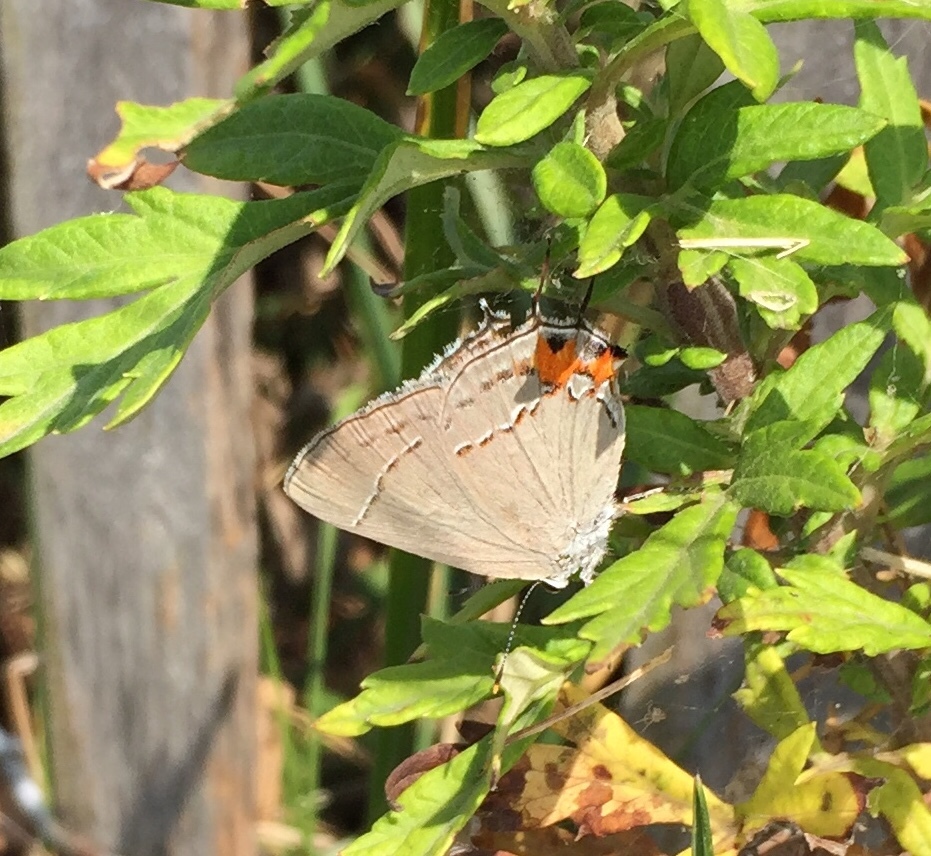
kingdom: Animalia
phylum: Arthropoda
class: Insecta
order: Lepidoptera
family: Lycaenidae
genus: Strymon
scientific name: Strymon melinus
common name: Gray hairstreak
